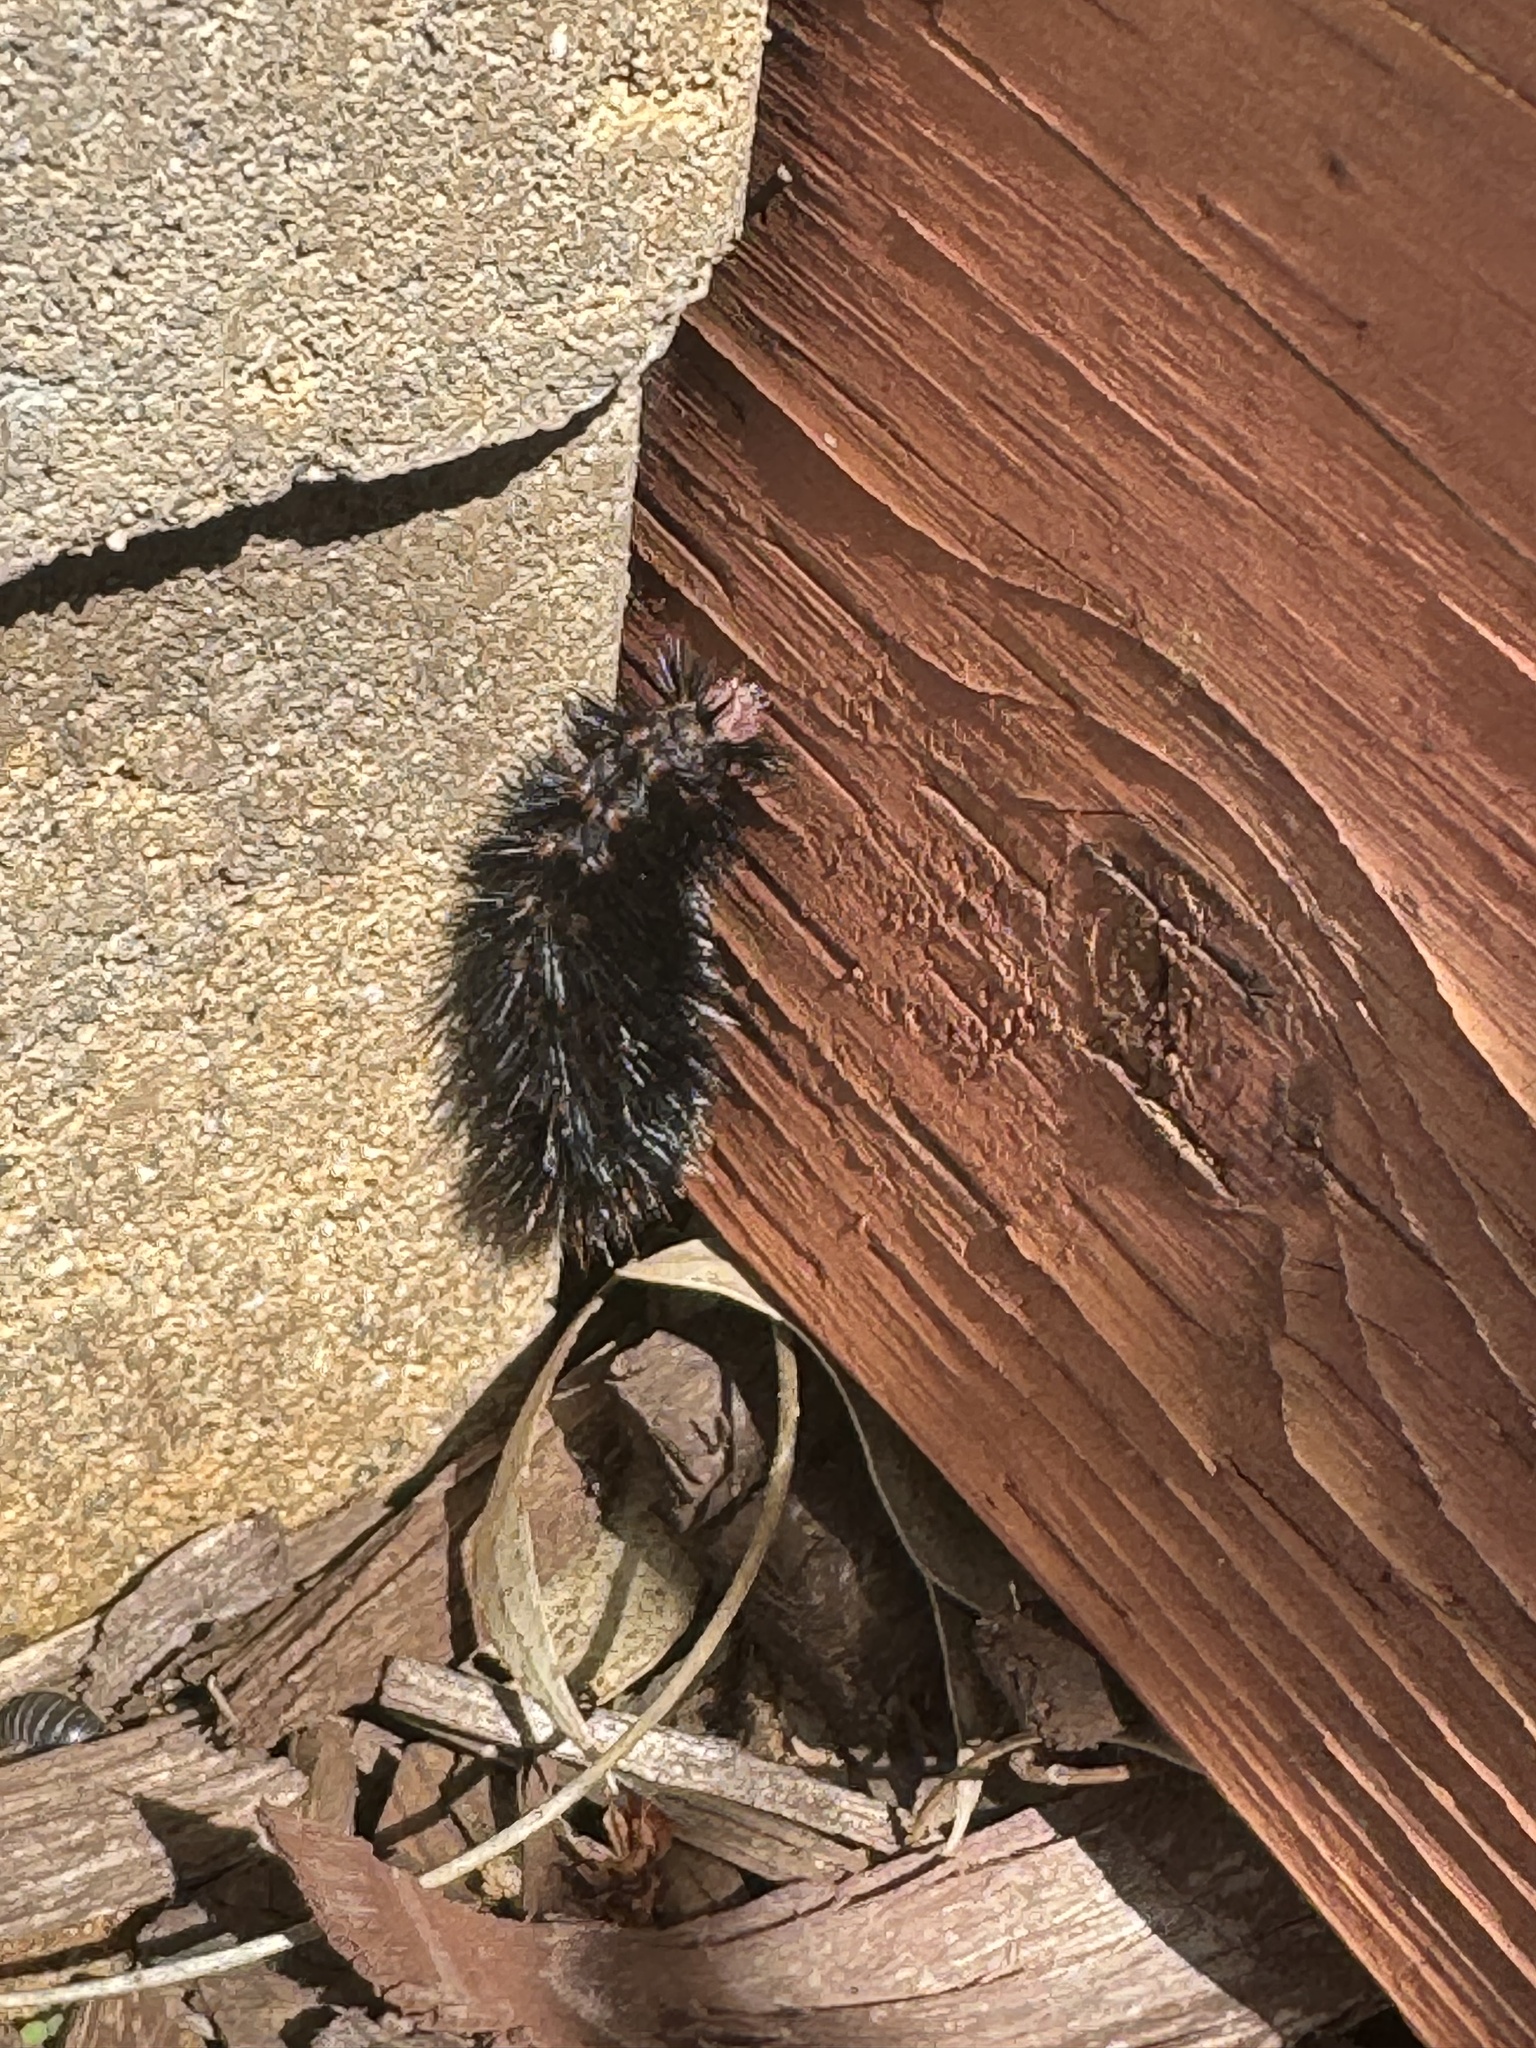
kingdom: Animalia
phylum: Arthropoda
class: Insecta
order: Lepidoptera
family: Erebidae
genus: Arachnis
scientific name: Arachnis picta
